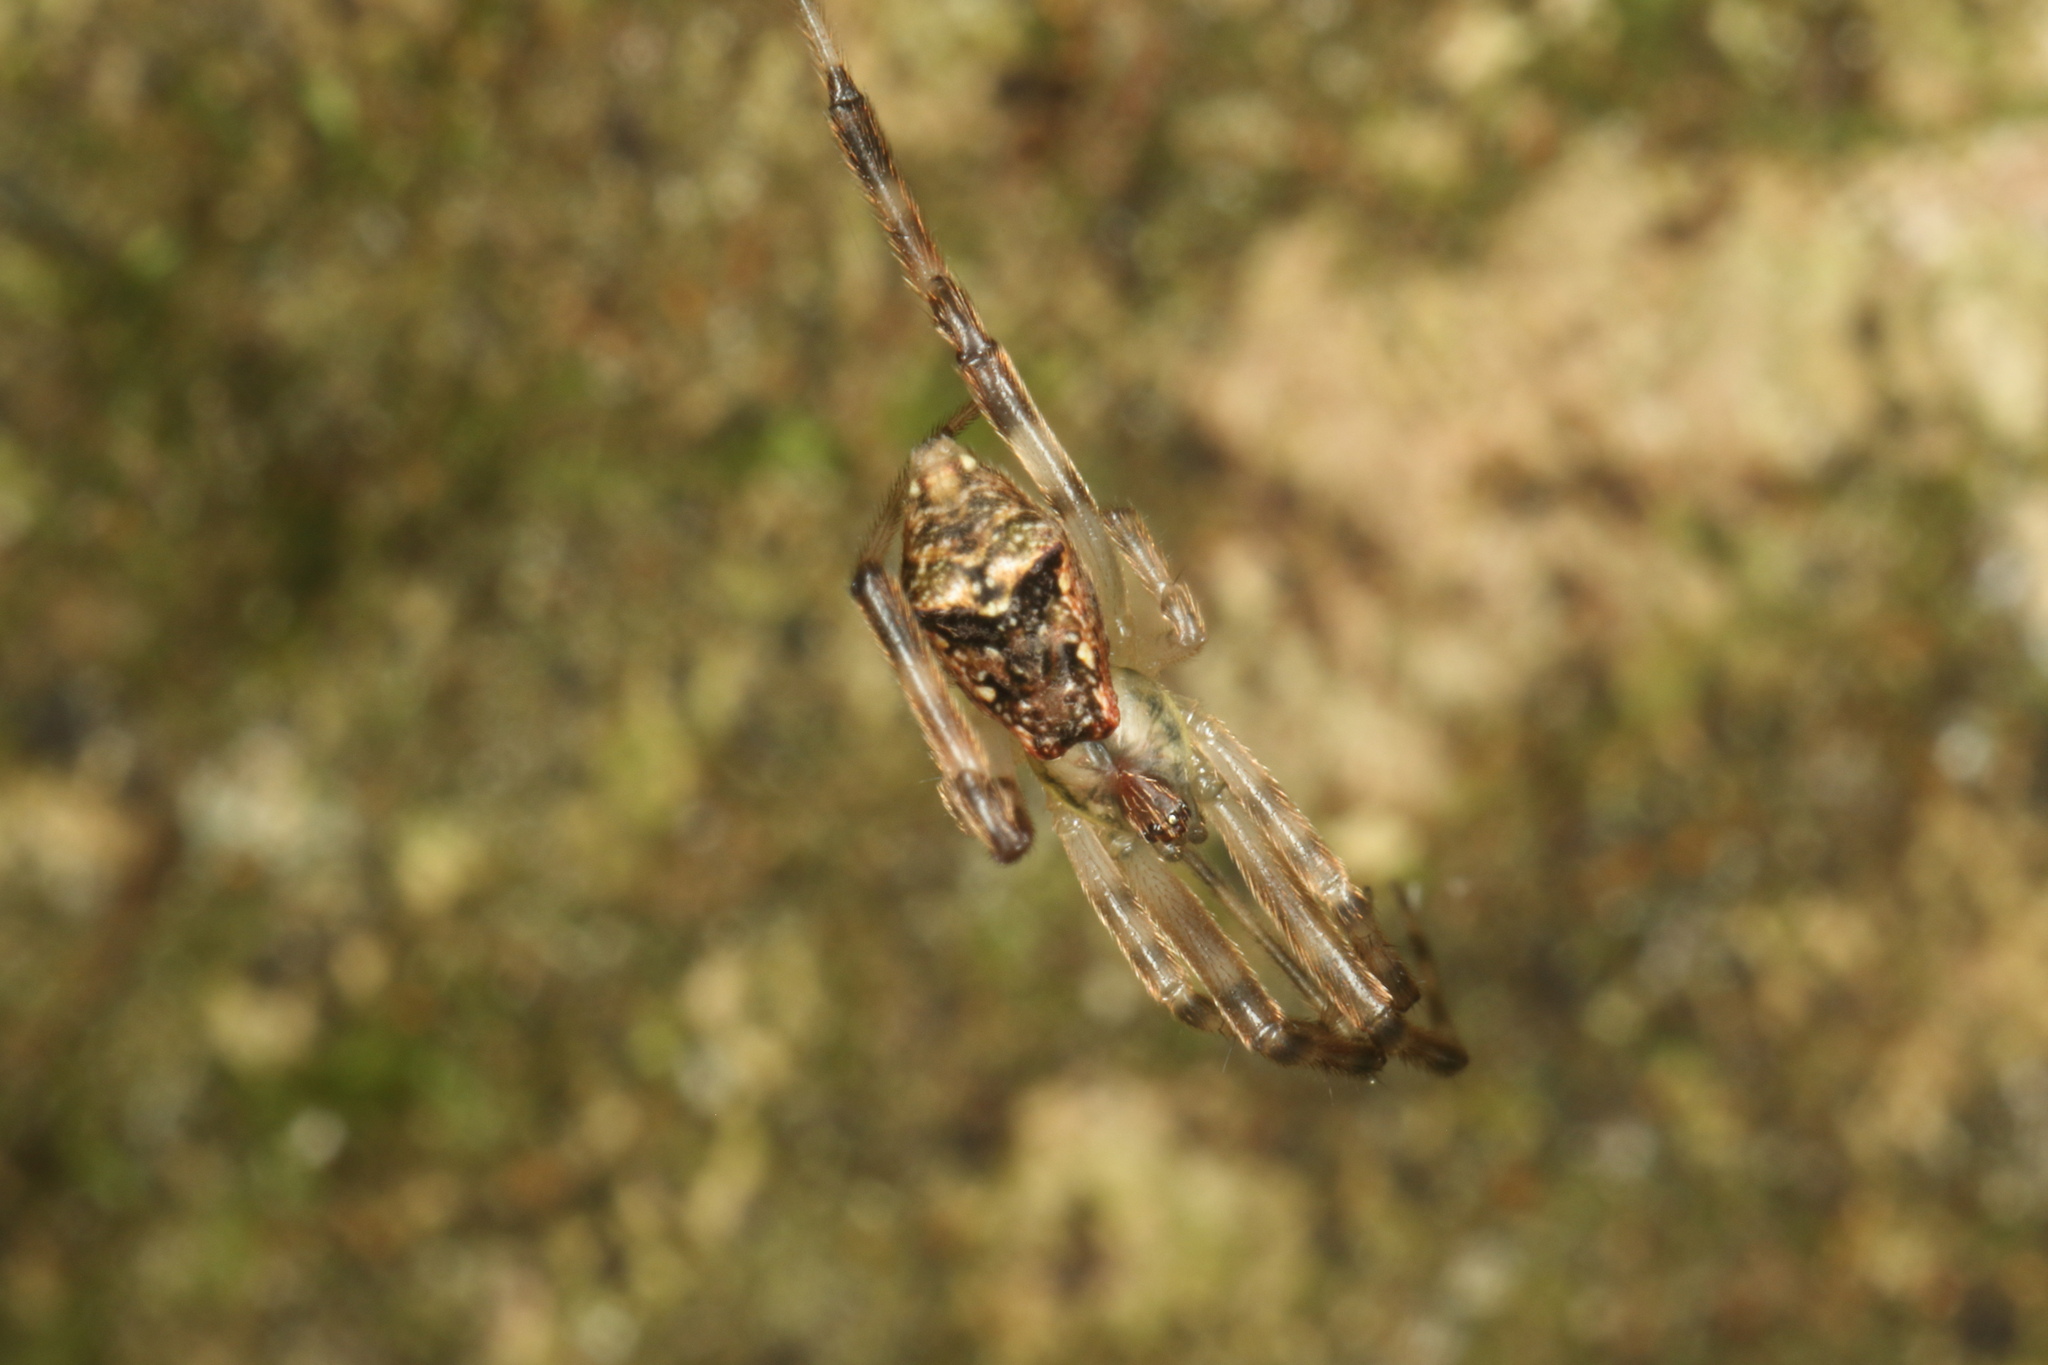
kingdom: Animalia
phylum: Arthropoda
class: Arachnida
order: Araneae
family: Theridiidae
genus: Episinus
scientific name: Episinus antipodianus
